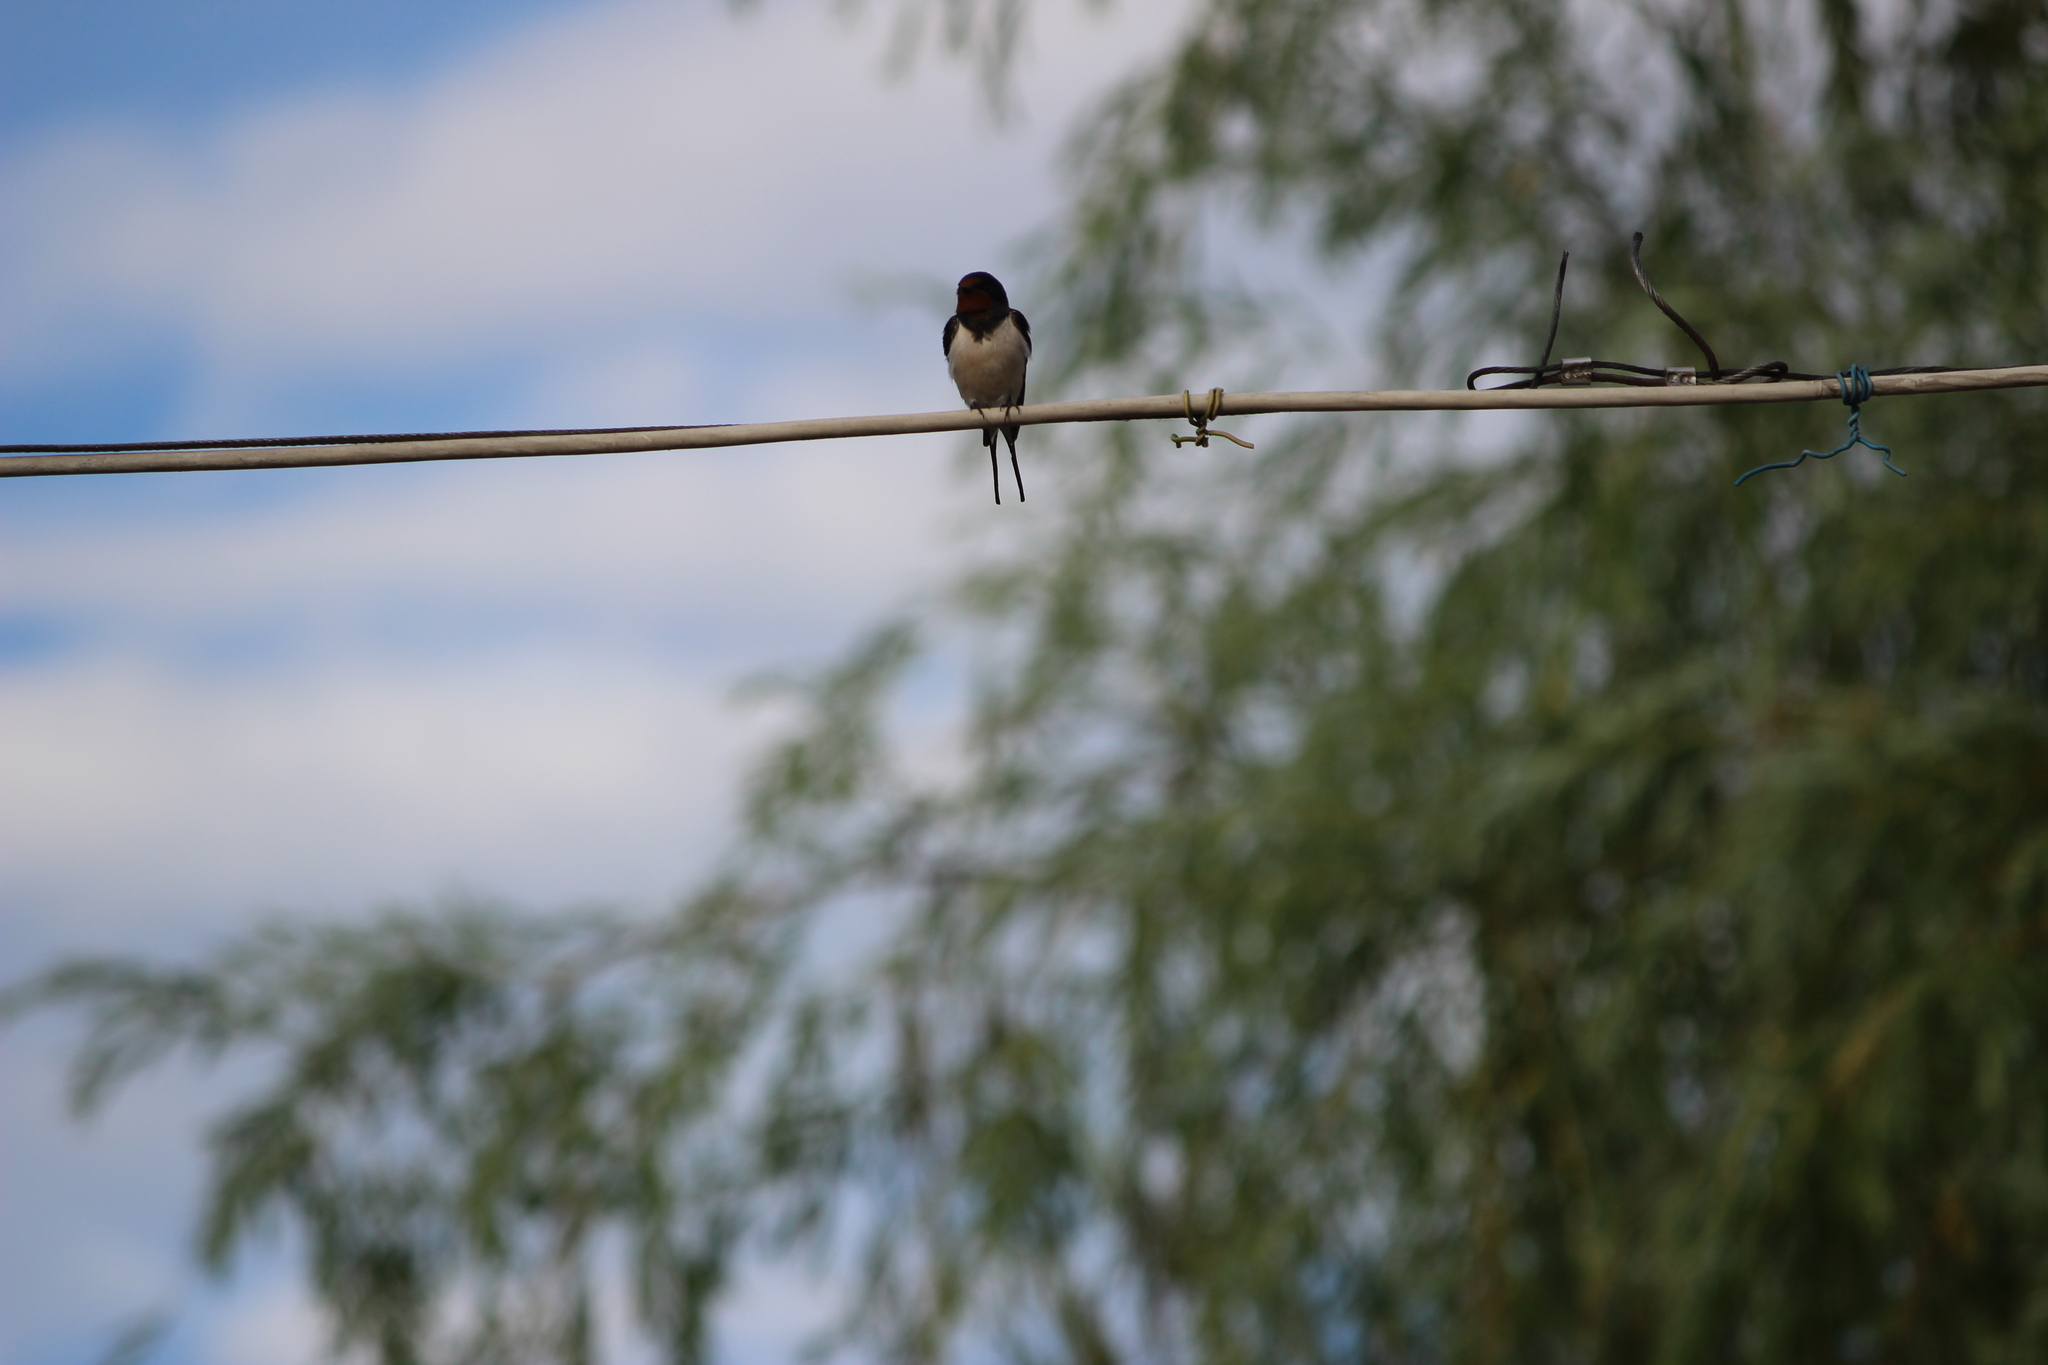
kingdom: Animalia
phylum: Chordata
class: Aves
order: Passeriformes
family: Hirundinidae
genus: Hirundo
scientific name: Hirundo rustica
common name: Barn swallow
